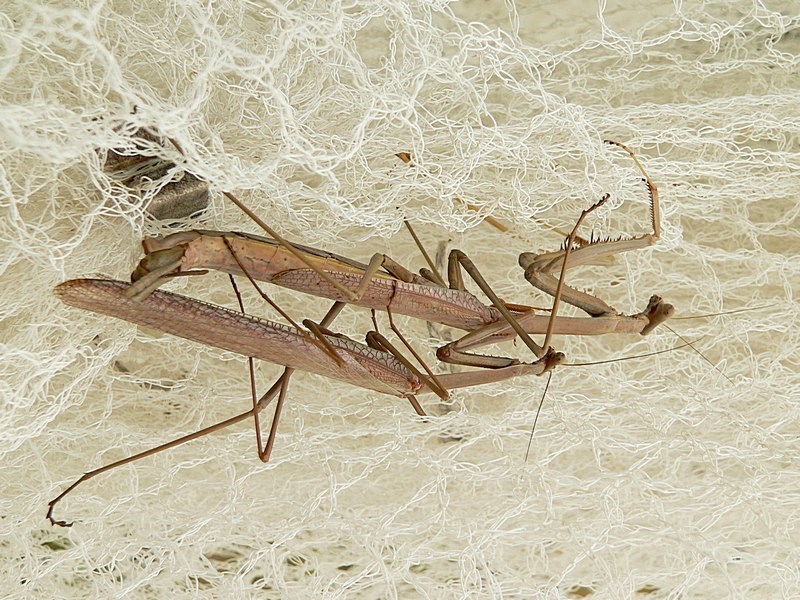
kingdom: Animalia
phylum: Arthropoda
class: Insecta
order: Mantodea
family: Mantidae
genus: Archimantis
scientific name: Archimantis latistyla
